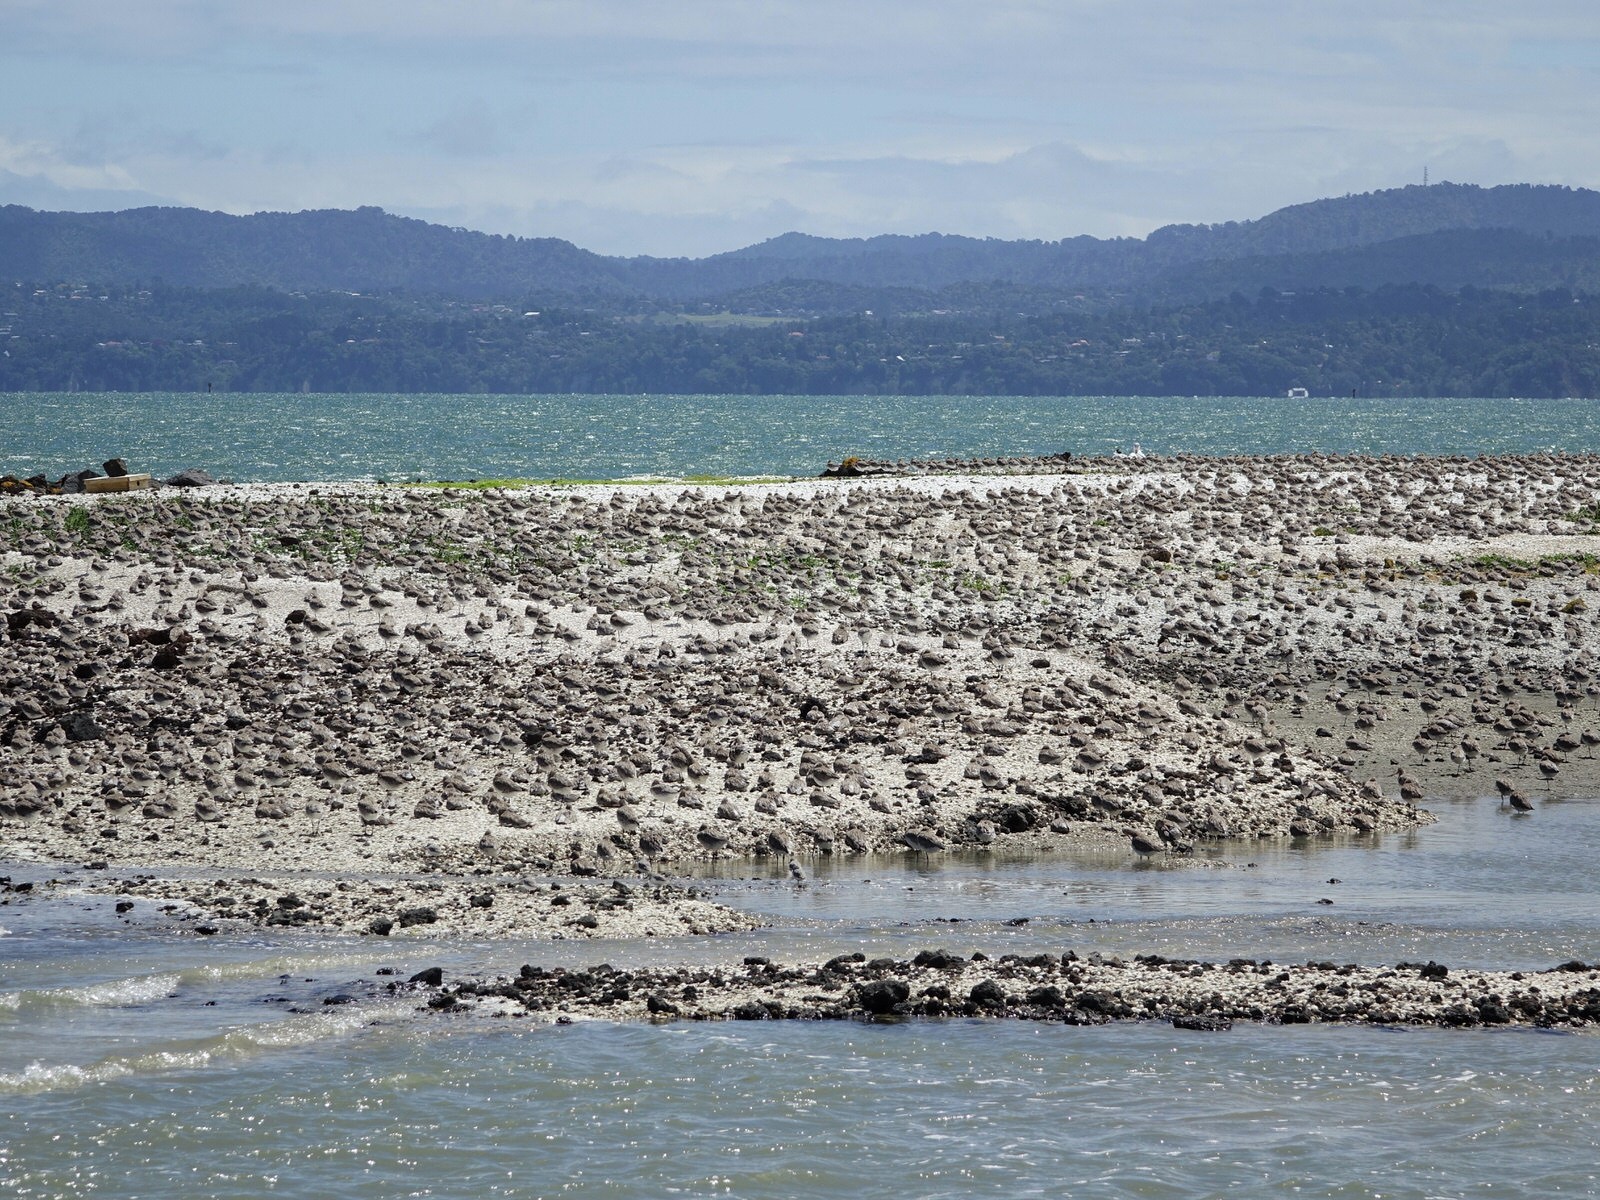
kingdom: Animalia
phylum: Chordata
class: Aves
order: Charadriiformes
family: Scolopacidae
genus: Limosa
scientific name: Limosa lapponica
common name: Bar-tailed godwit
